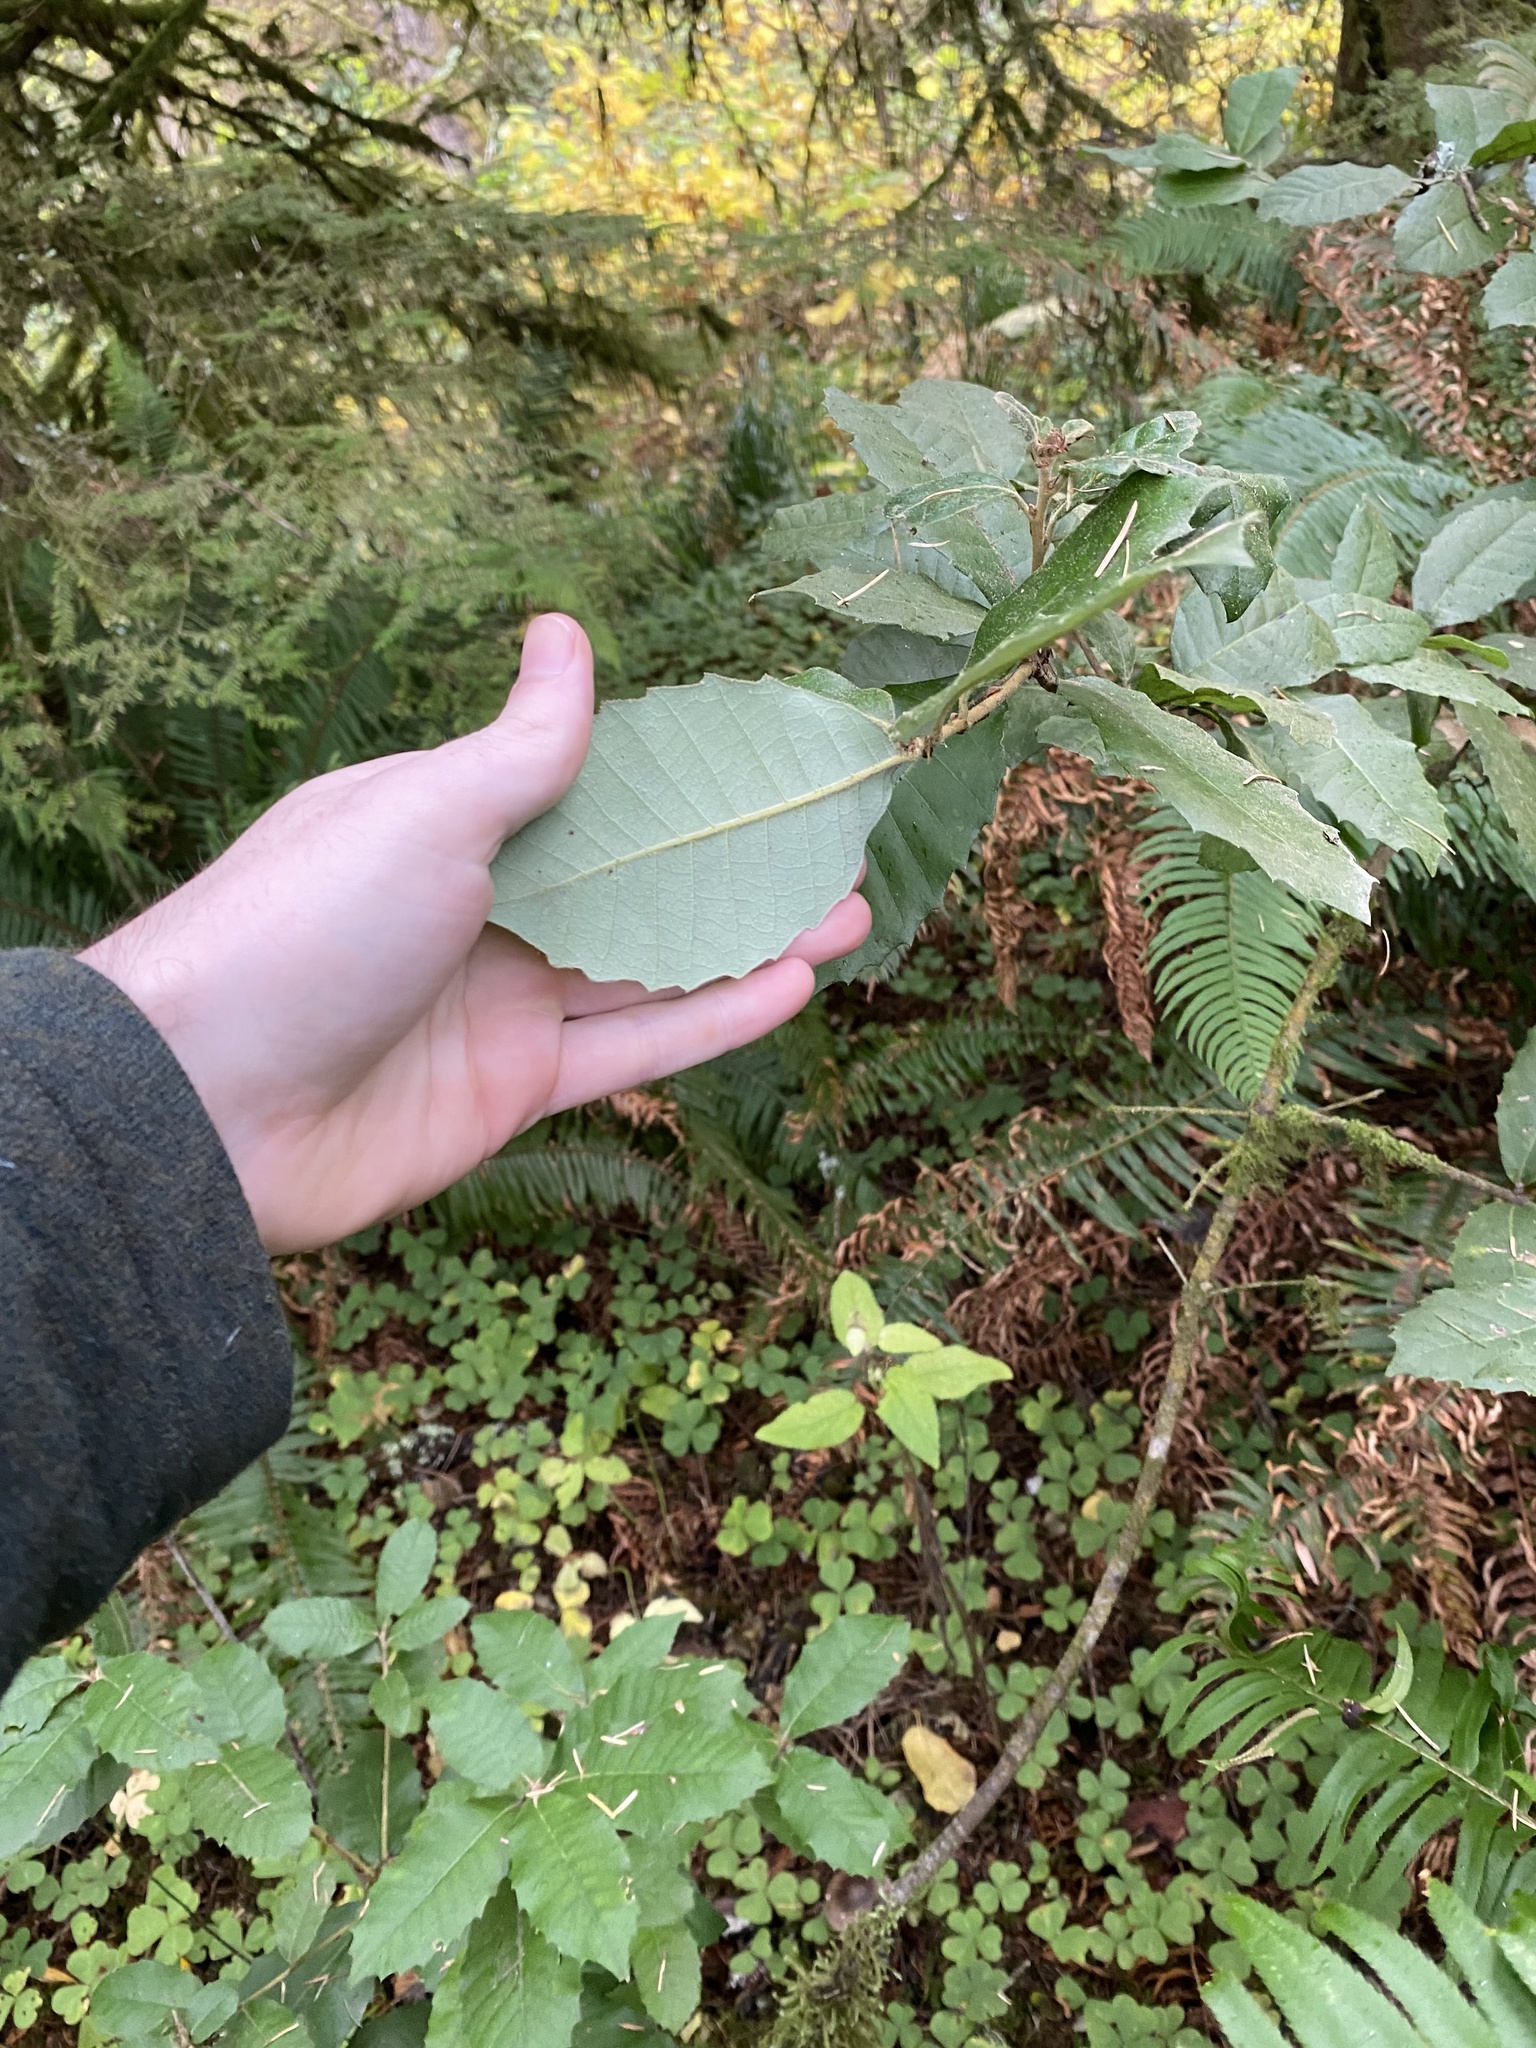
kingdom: Plantae
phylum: Tracheophyta
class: Magnoliopsida
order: Fagales
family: Fagaceae
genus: Notholithocarpus
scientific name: Notholithocarpus densiflorus
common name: Tan bark oak
